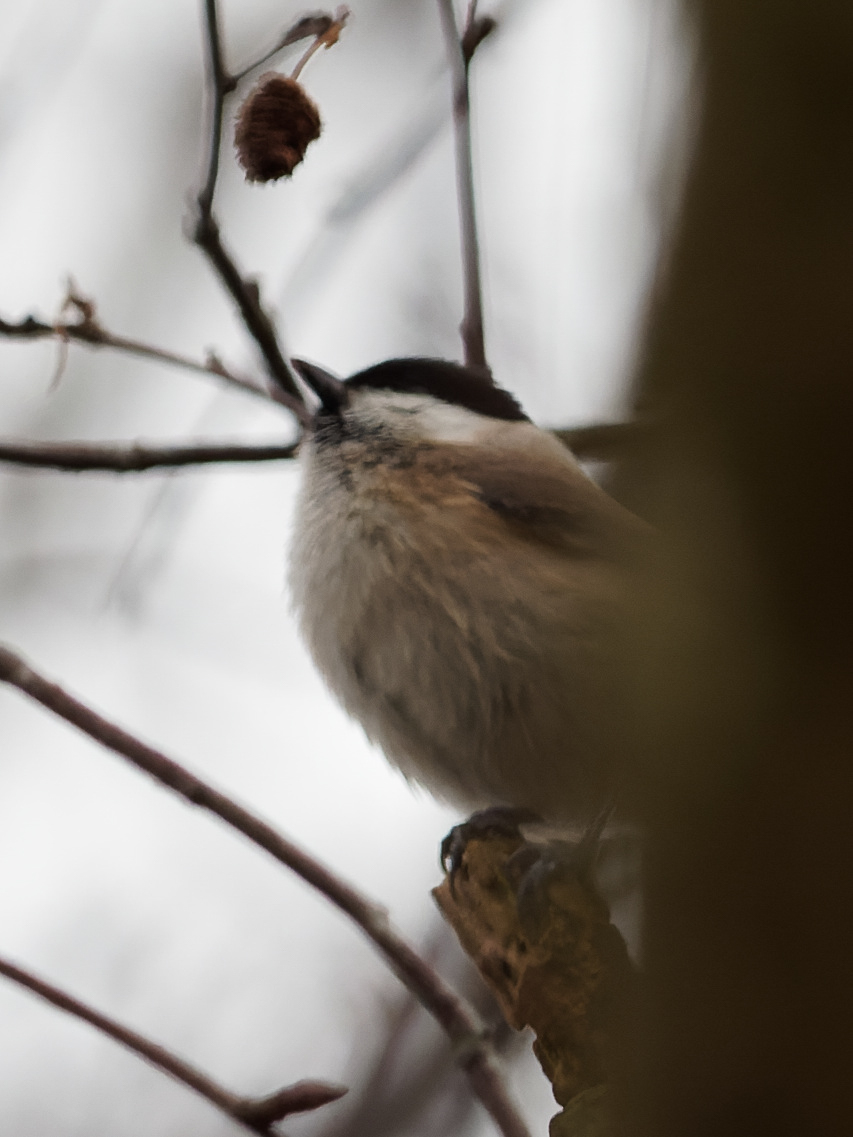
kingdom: Animalia
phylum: Chordata
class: Aves
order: Passeriformes
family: Paridae
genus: Poecile
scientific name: Poecile palustris
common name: Marsh tit
